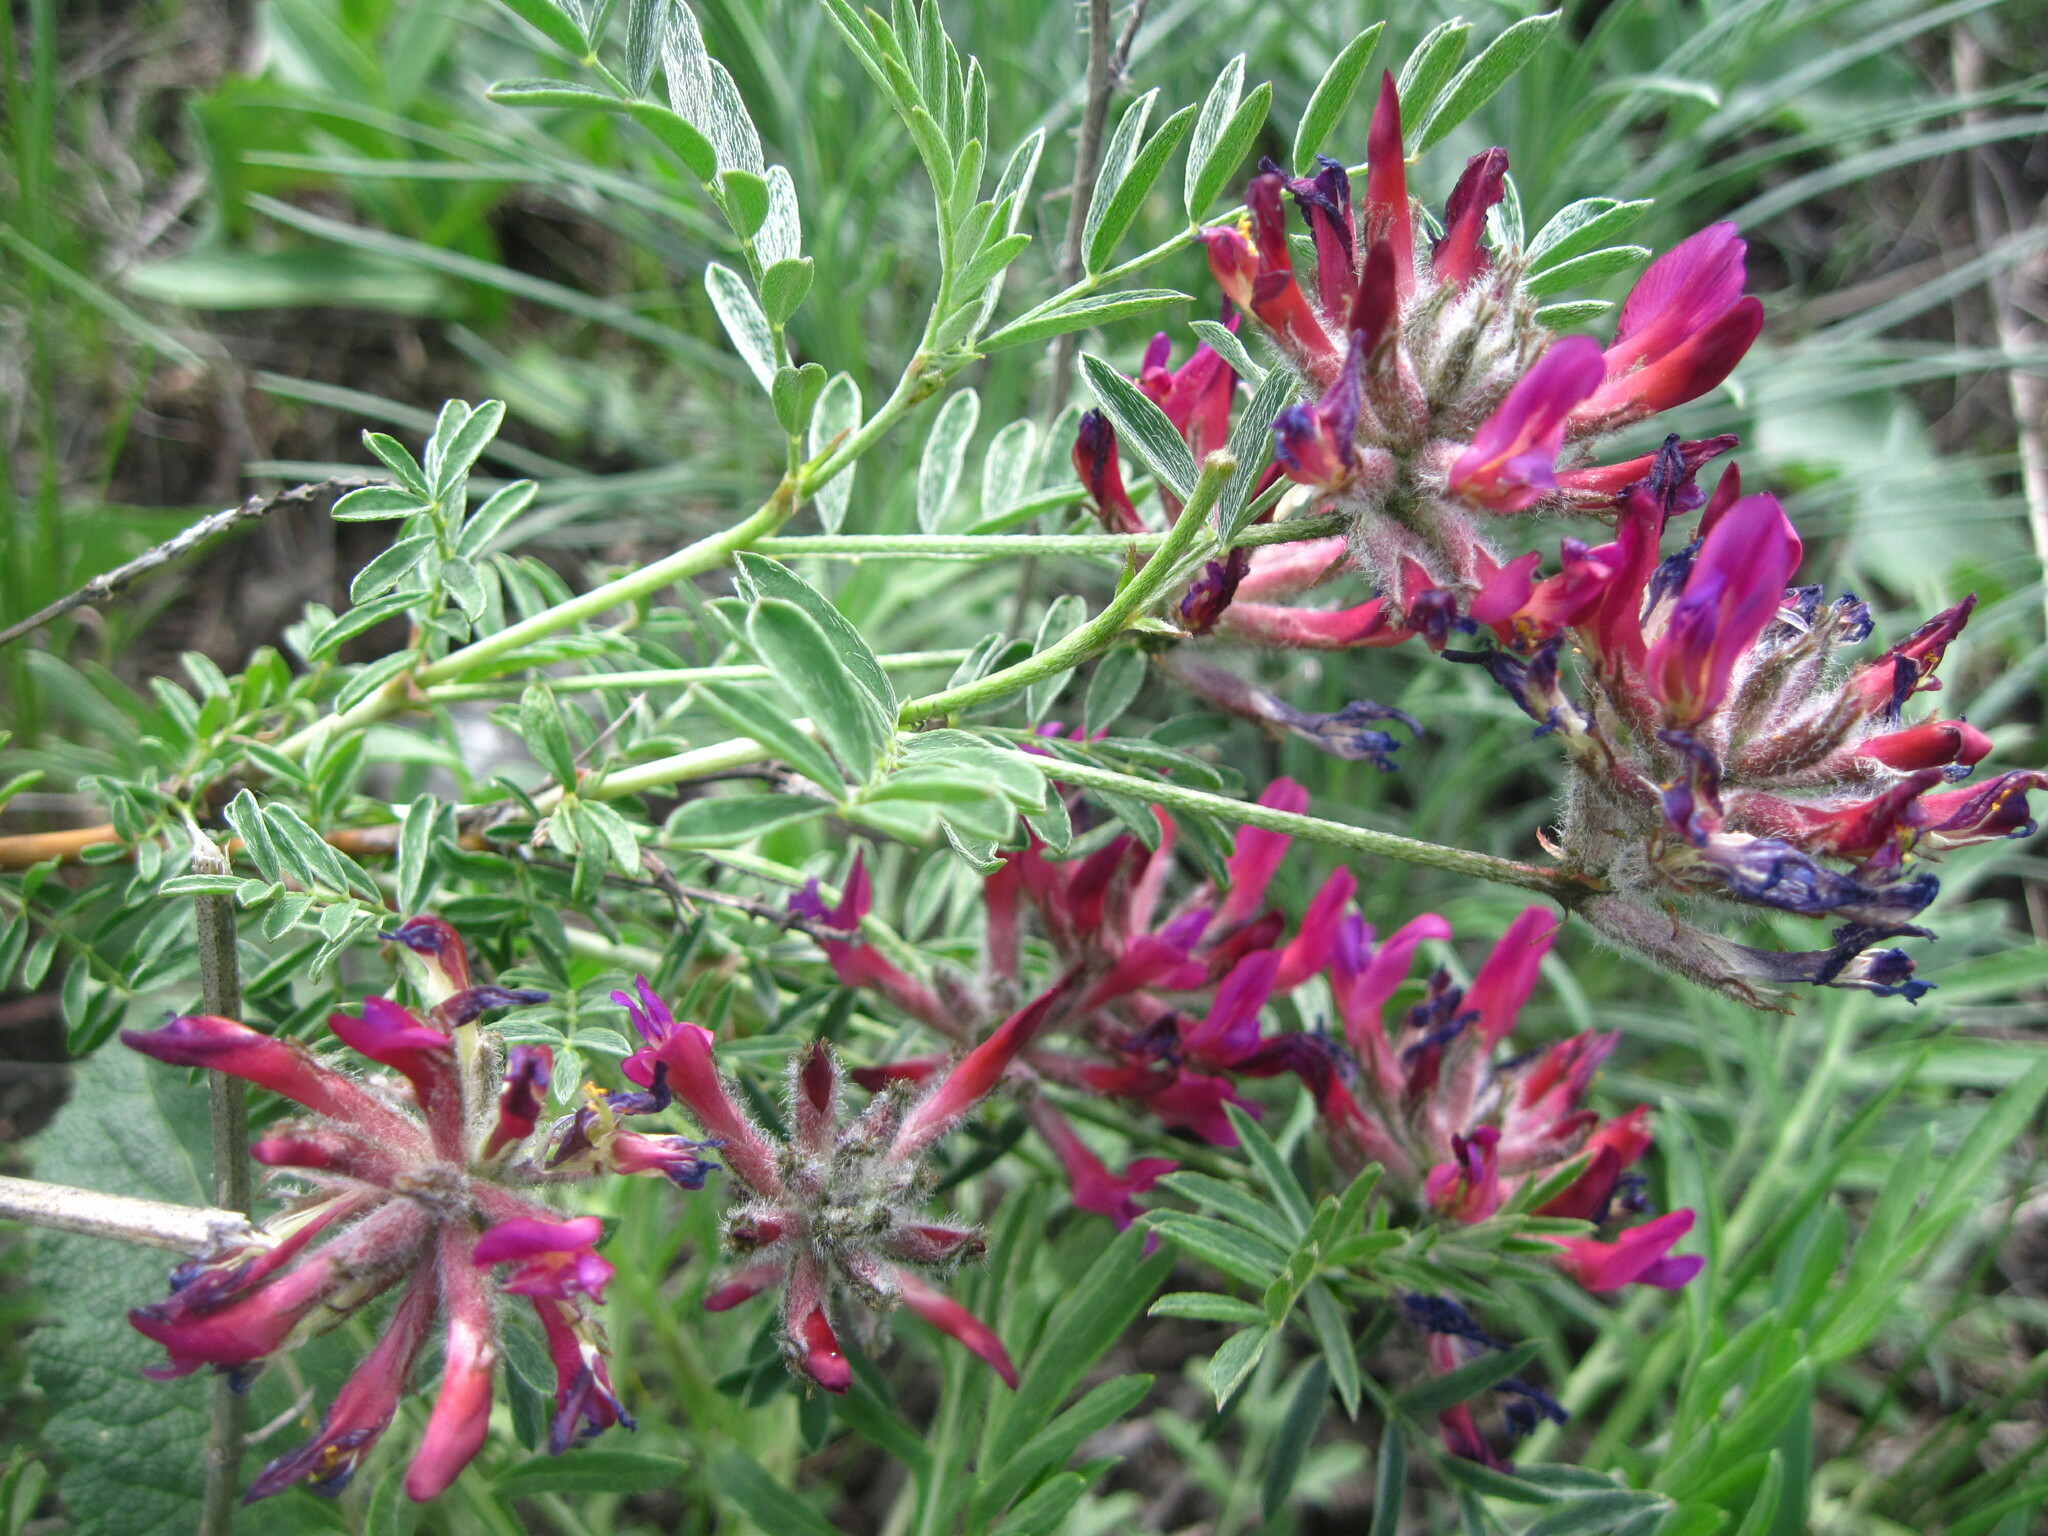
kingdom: Plantae
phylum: Tracheophyta
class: Magnoliopsida
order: Fabales
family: Fabaceae
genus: Astragalus
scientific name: Astragalus cornutus
